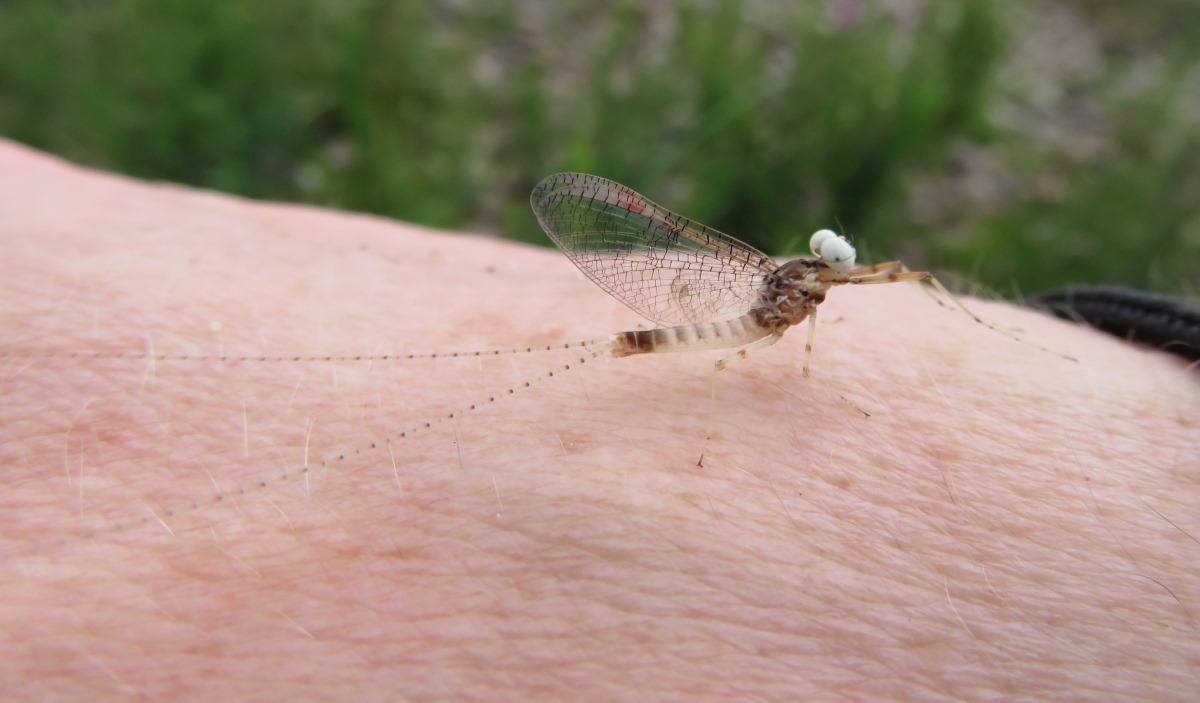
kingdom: Animalia
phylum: Arthropoda
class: Insecta
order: Ephemeroptera
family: Heptageniidae
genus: Stenonema
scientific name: Stenonema femoratum
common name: Dark cahill
